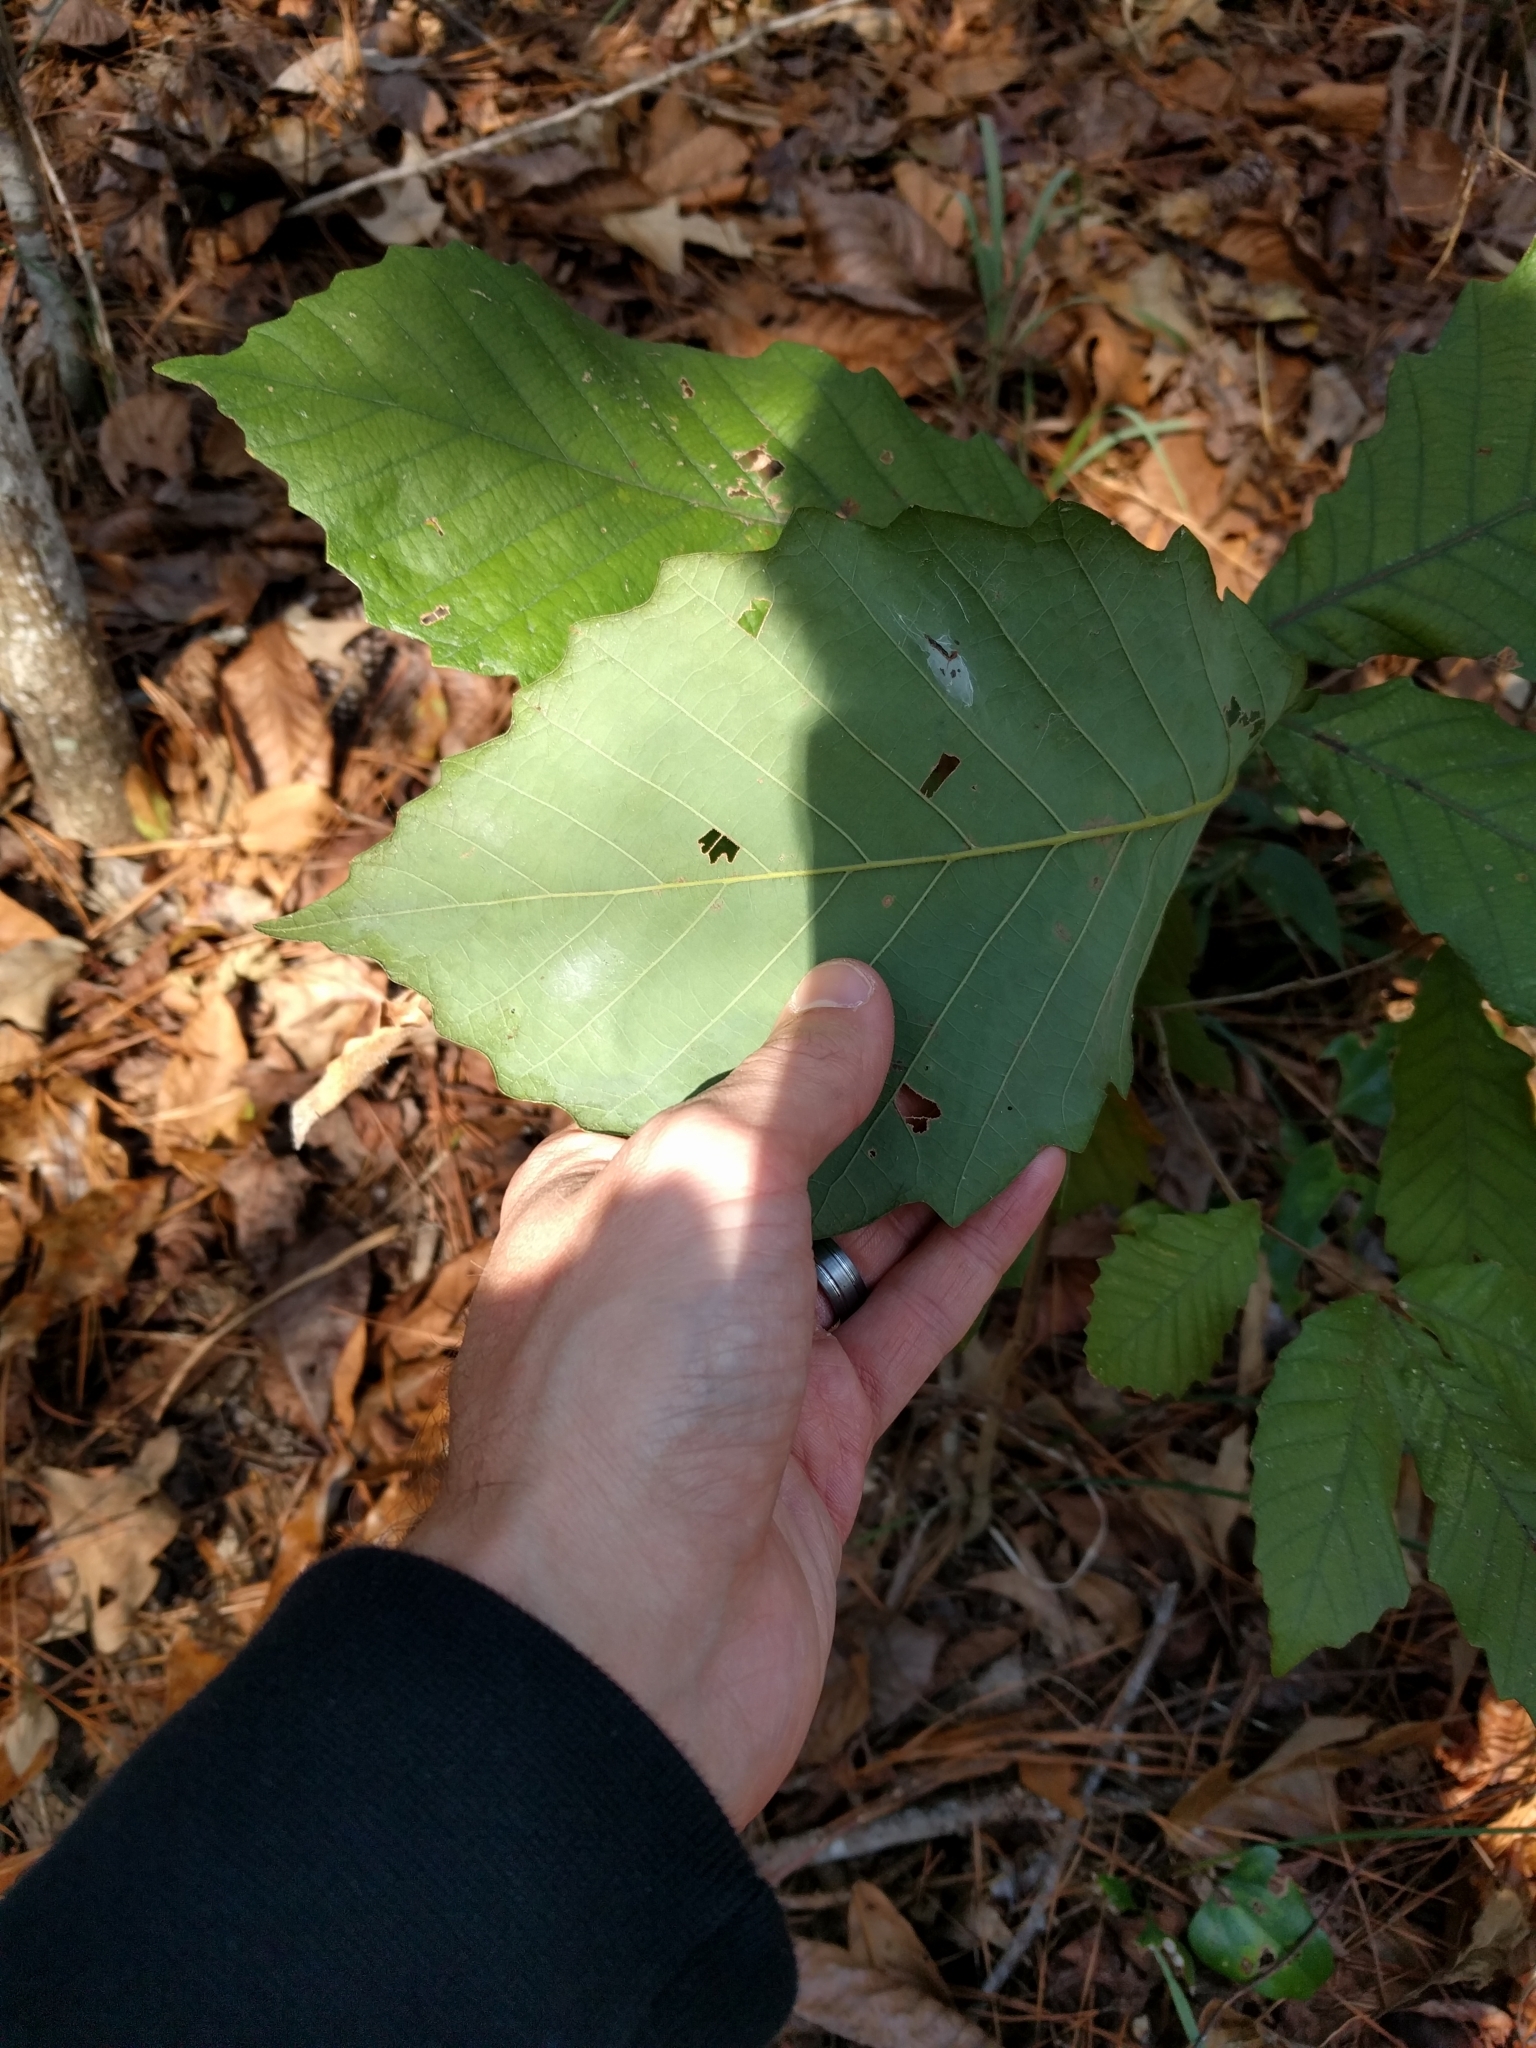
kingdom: Plantae
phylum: Tracheophyta
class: Magnoliopsida
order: Fagales
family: Fagaceae
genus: Quercus
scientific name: Quercus michauxii
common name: Swamp chestnut oak
